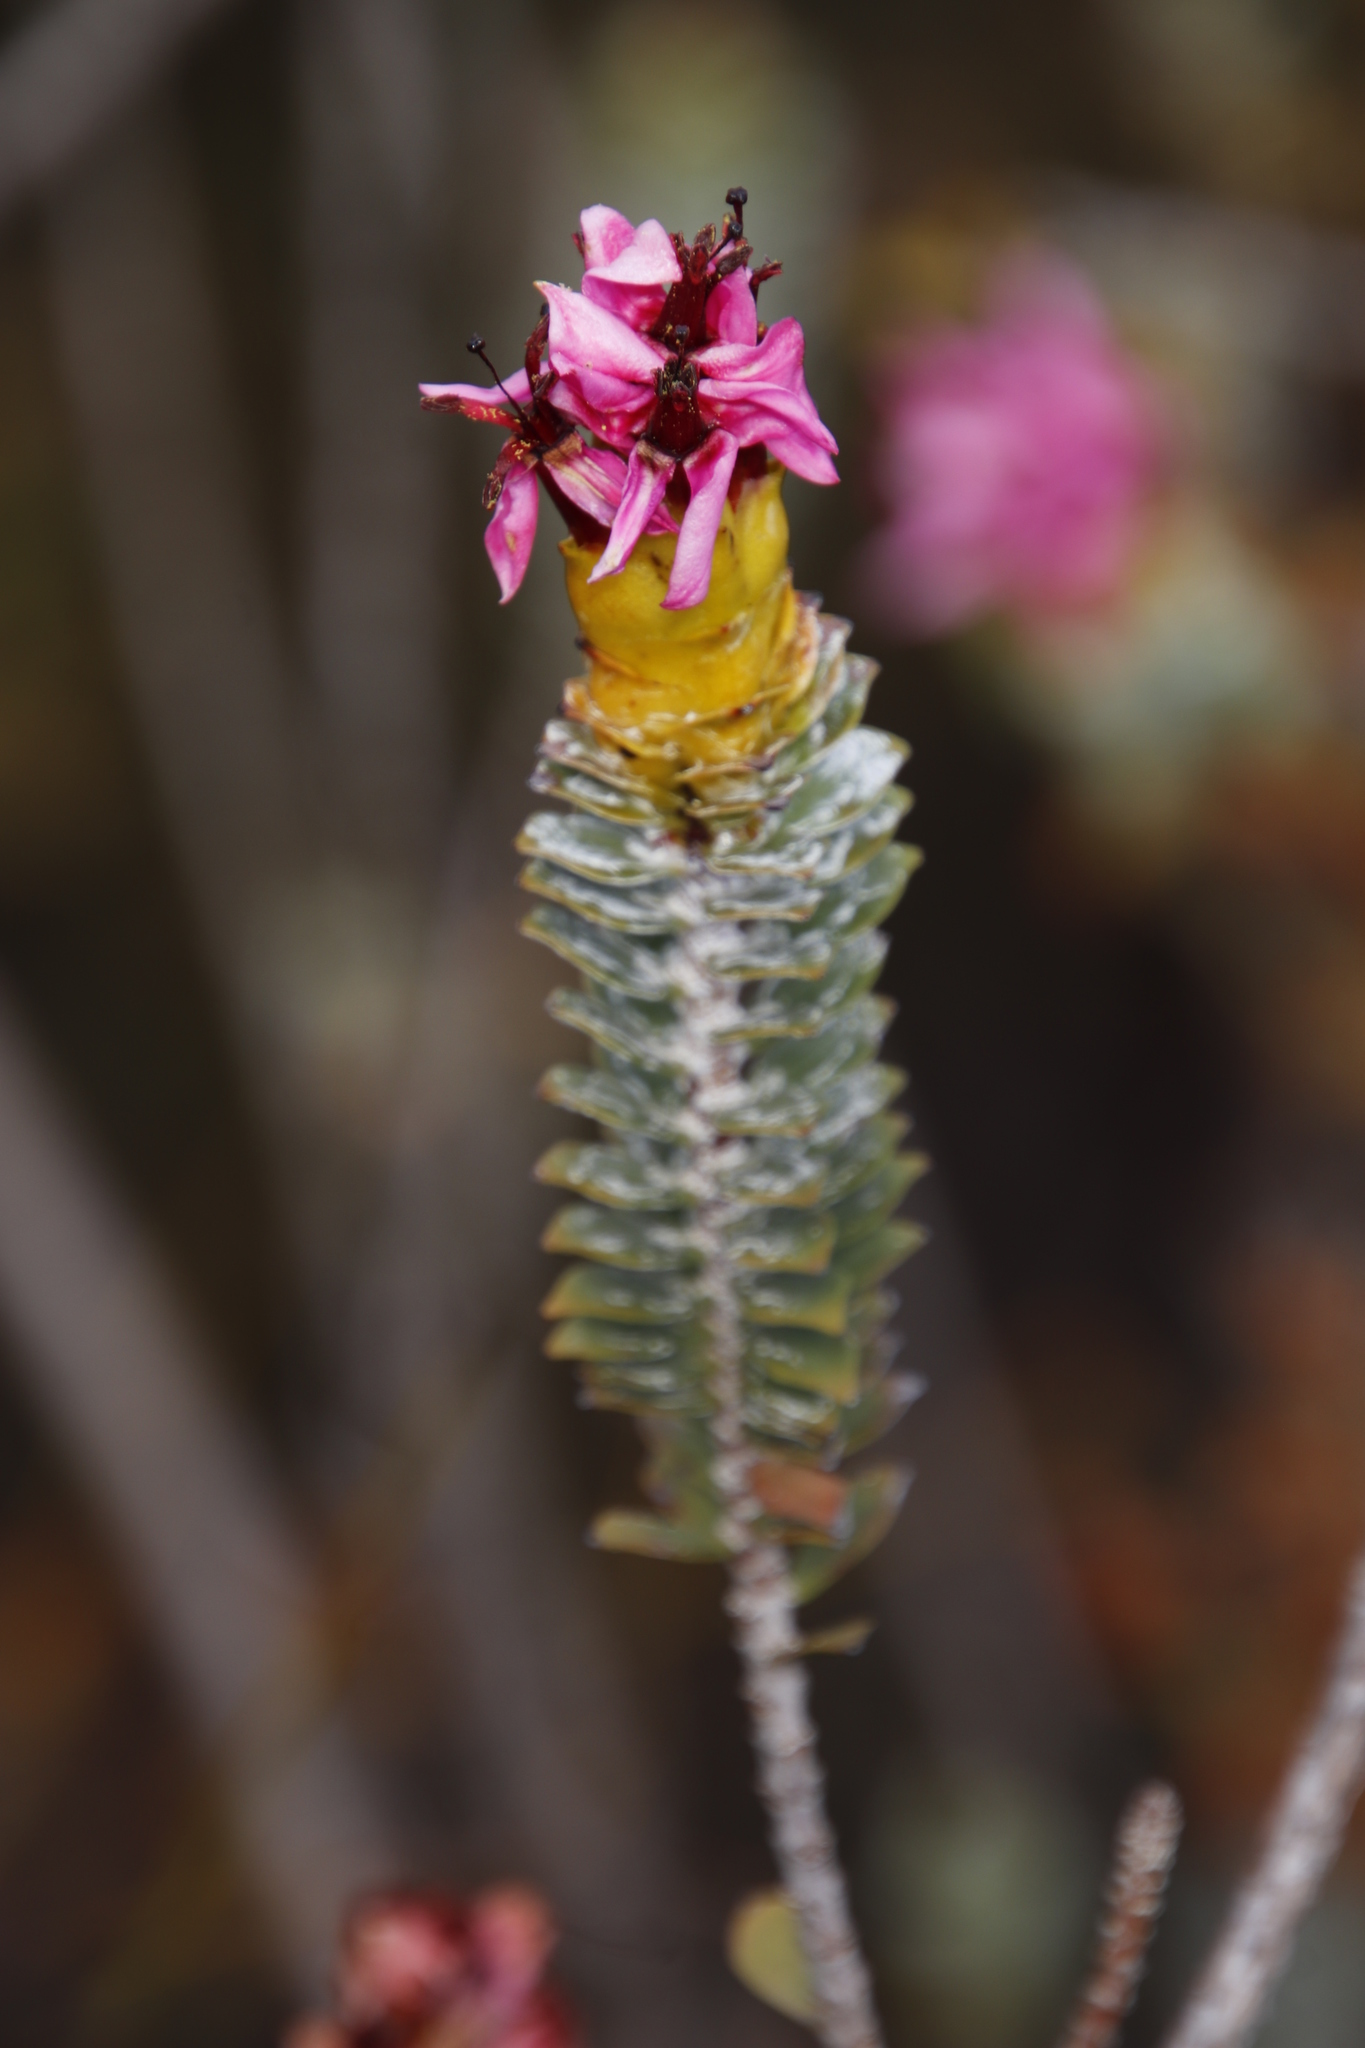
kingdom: Plantae
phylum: Tracheophyta
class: Magnoliopsida
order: Myrtales
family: Penaeaceae
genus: Saltera
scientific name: Saltera sarcocolla
